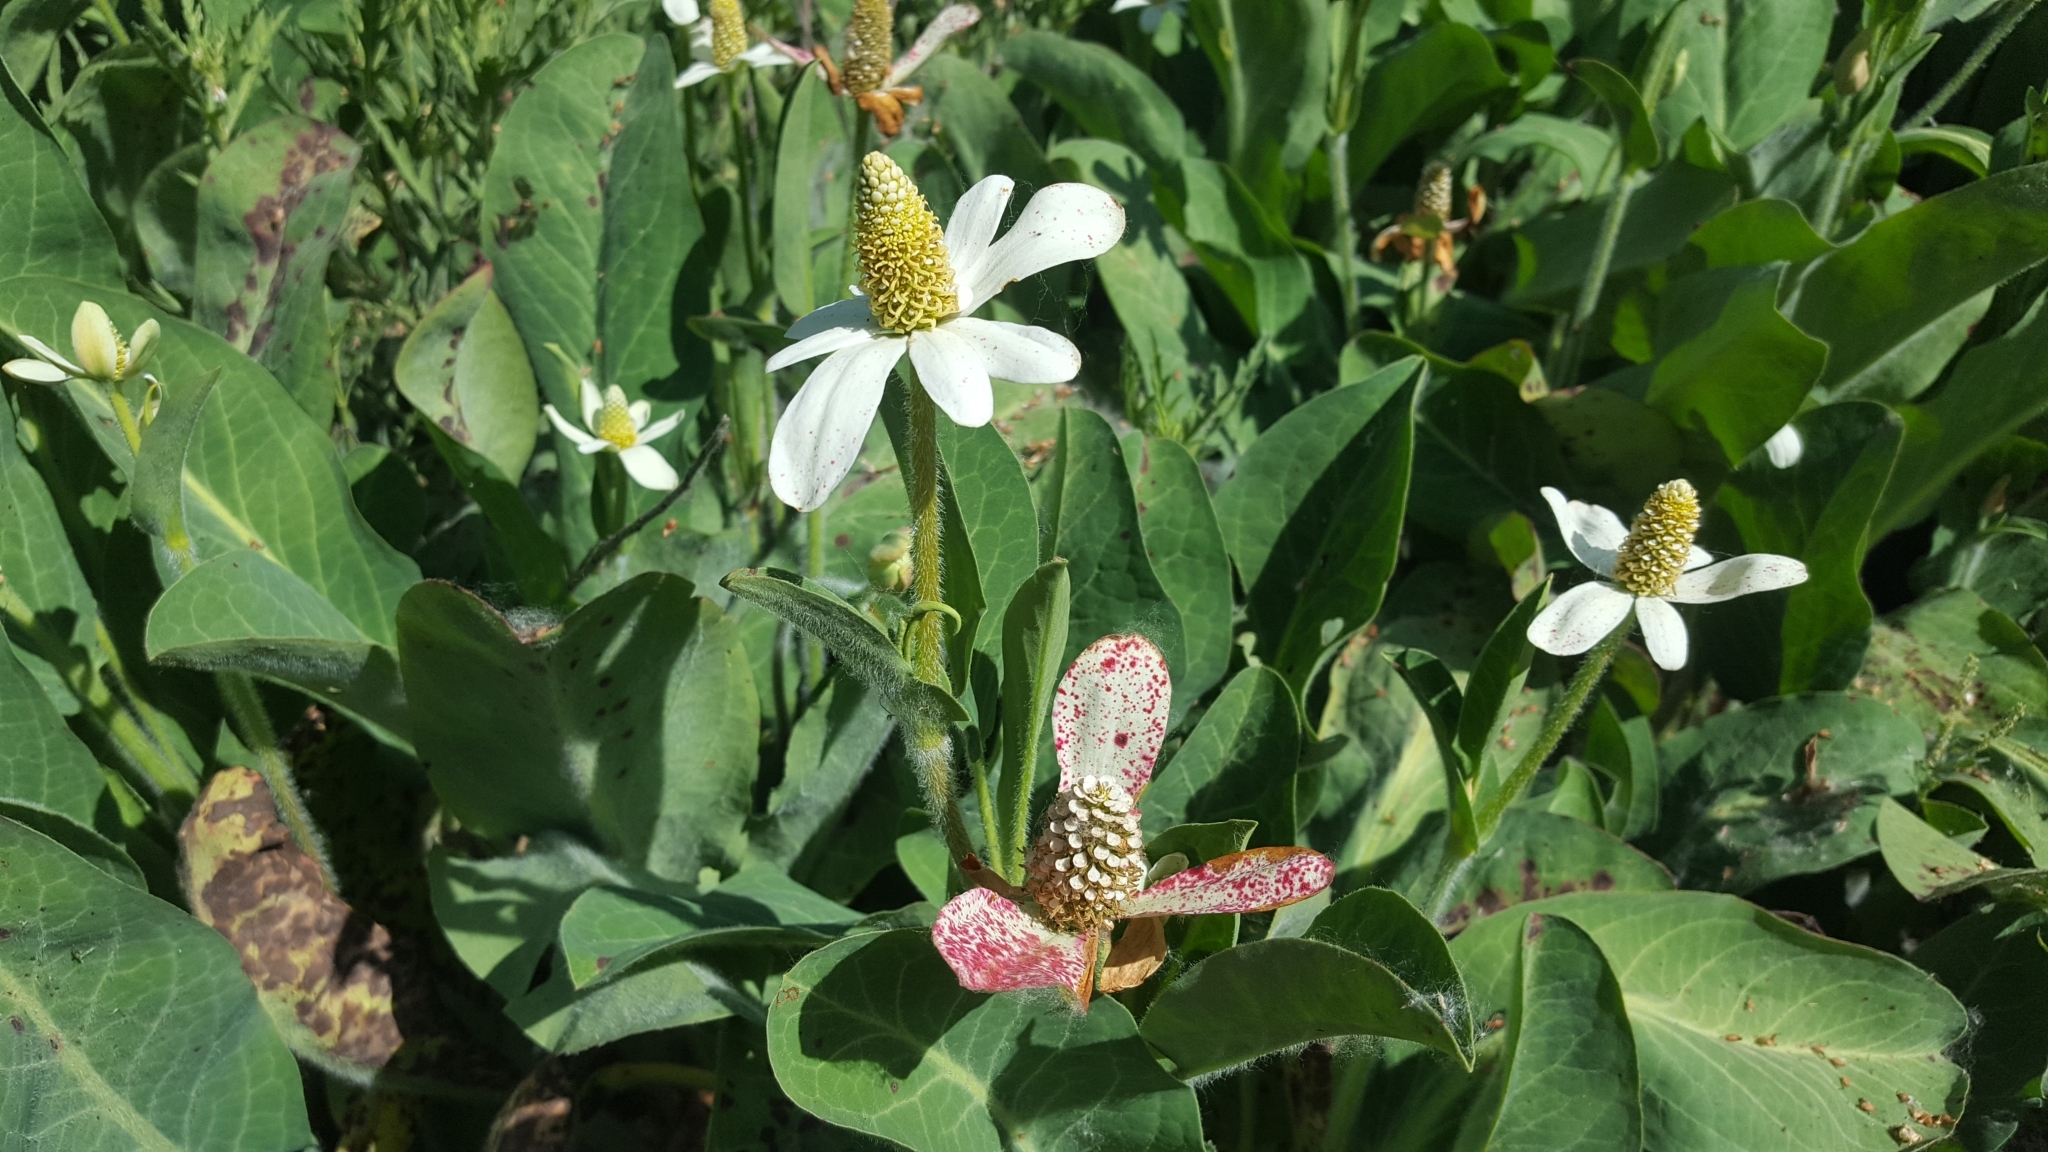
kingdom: Plantae
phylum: Tracheophyta
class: Magnoliopsida
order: Piperales
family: Saururaceae
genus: Anemopsis
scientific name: Anemopsis californica
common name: Apache-beads
